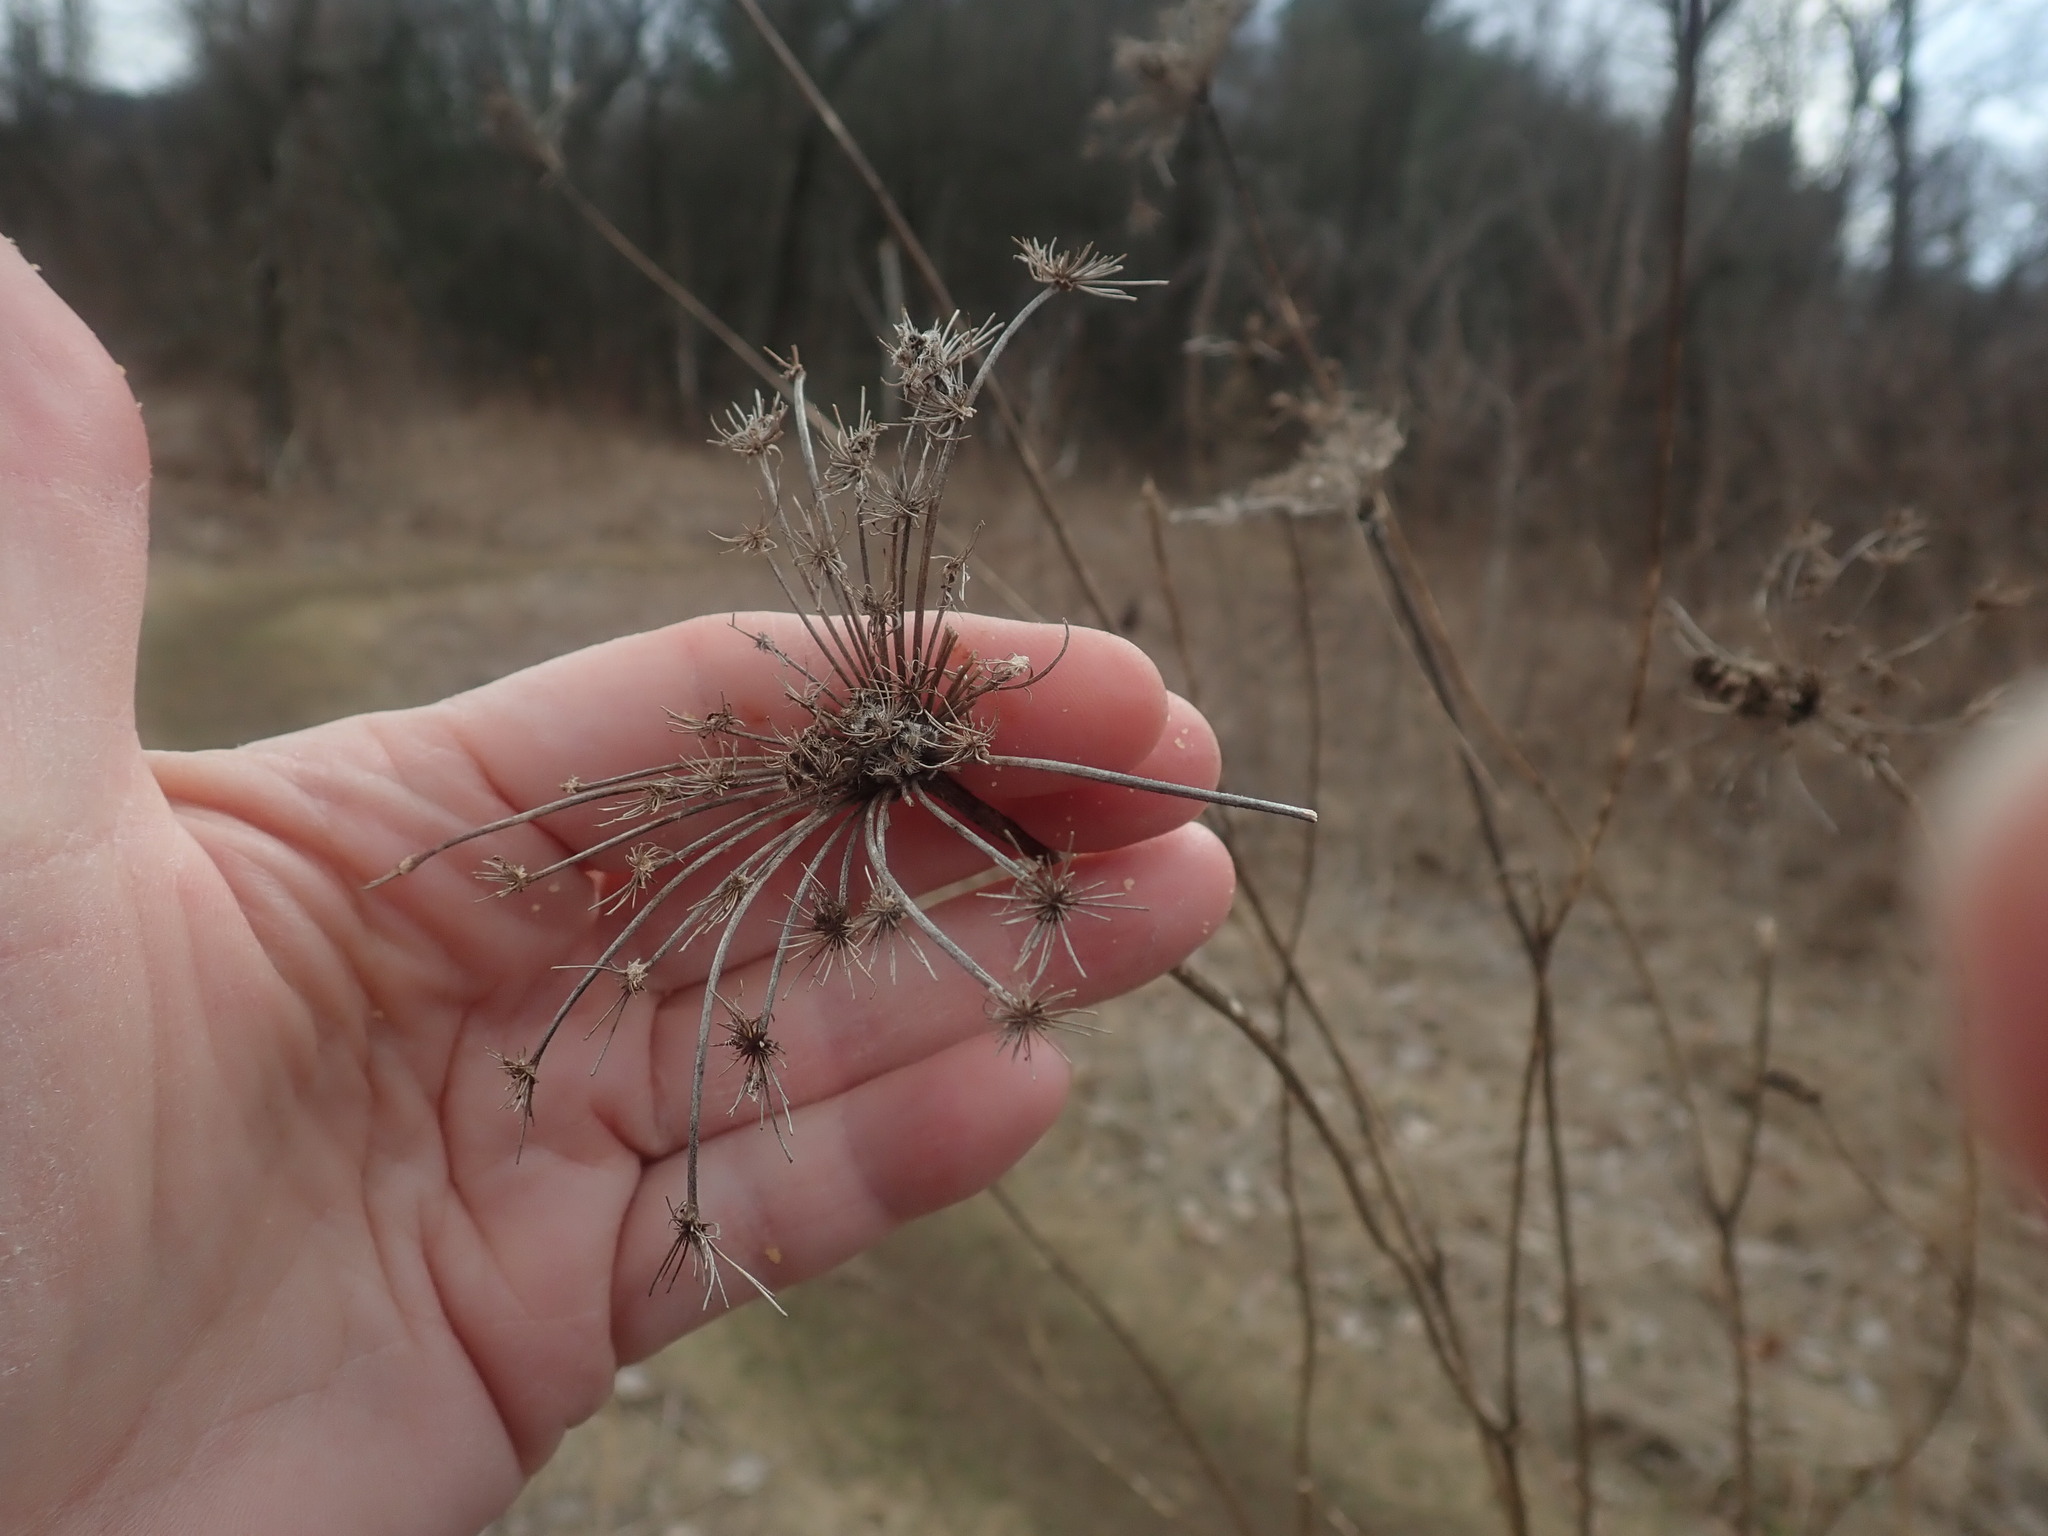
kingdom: Plantae
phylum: Tracheophyta
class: Magnoliopsida
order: Apiales
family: Apiaceae
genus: Daucus
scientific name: Daucus carota
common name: Wild carrot
